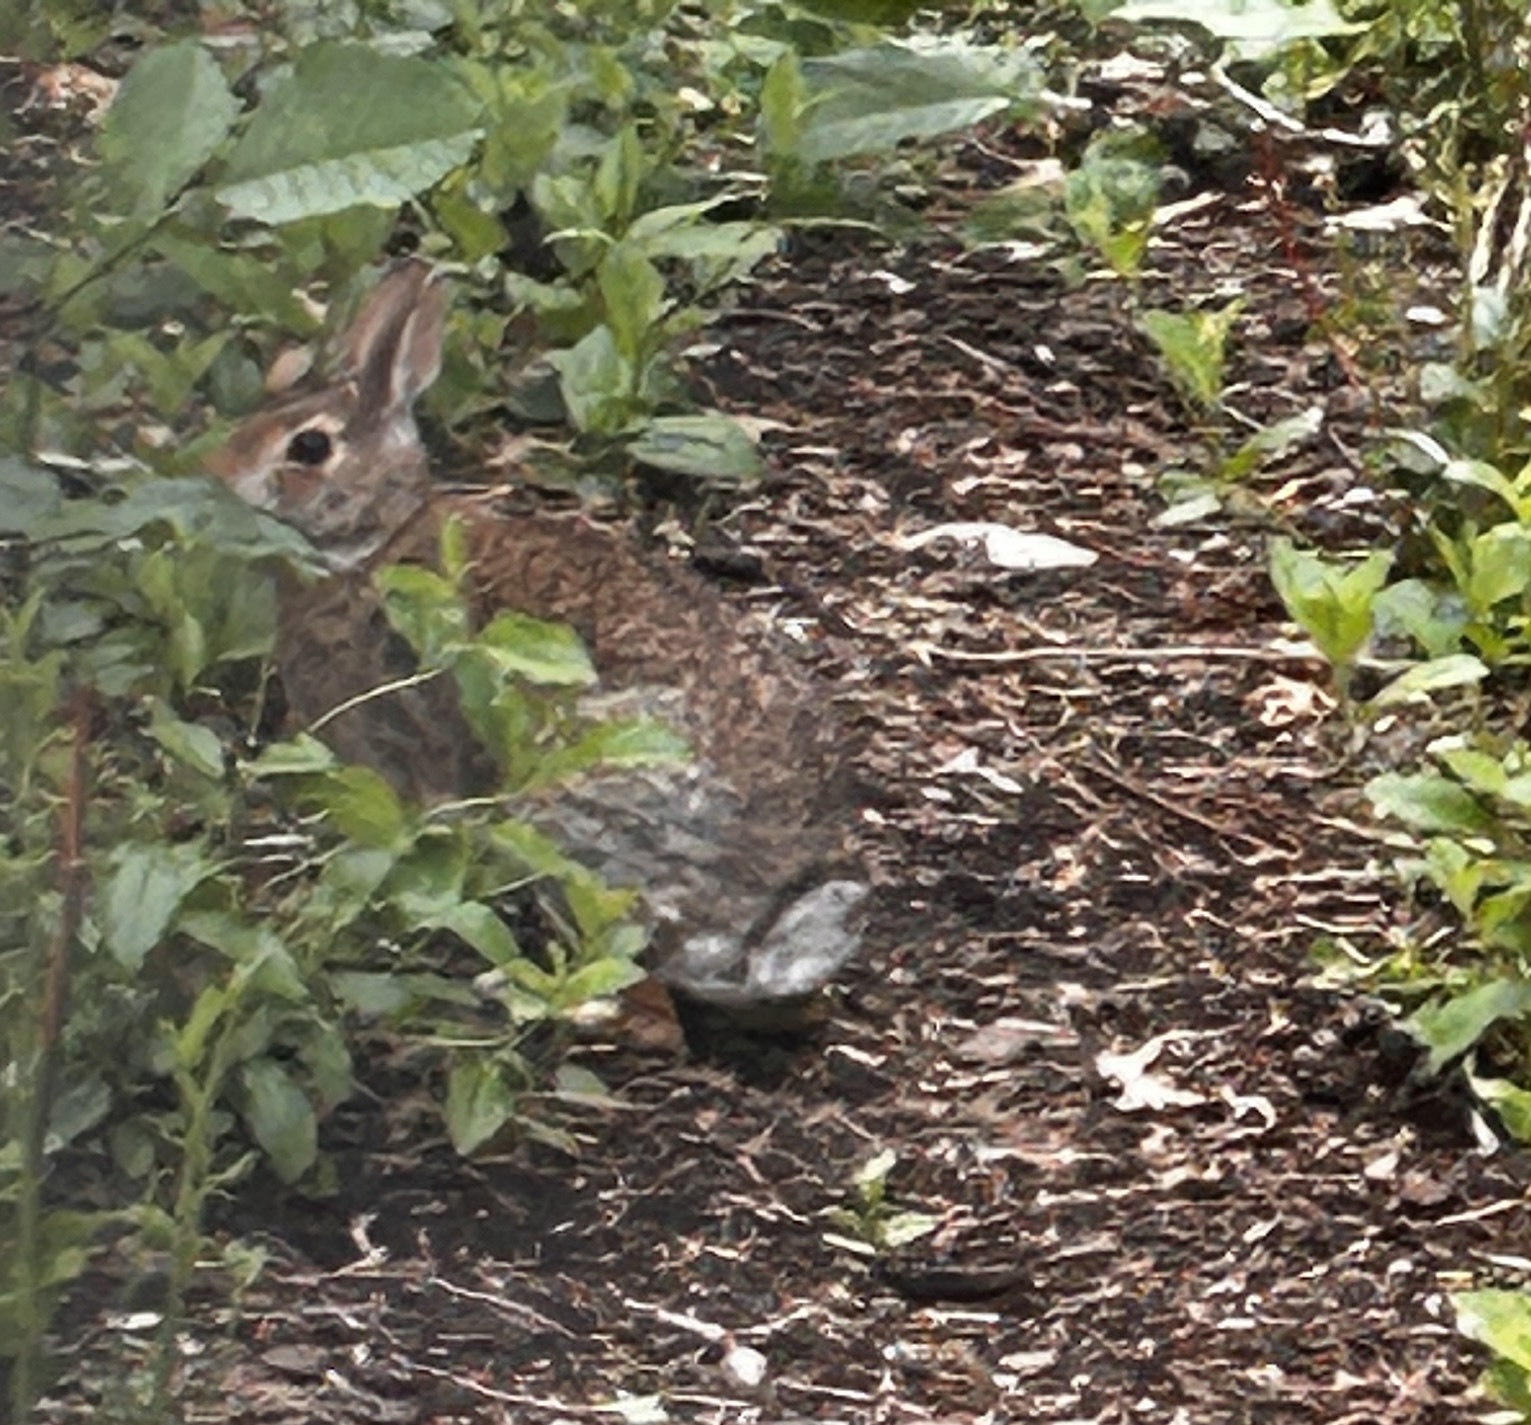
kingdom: Animalia
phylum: Chordata
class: Mammalia
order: Lagomorpha
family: Leporidae
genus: Sylvilagus
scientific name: Sylvilagus floridanus
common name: Eastern cottontail
